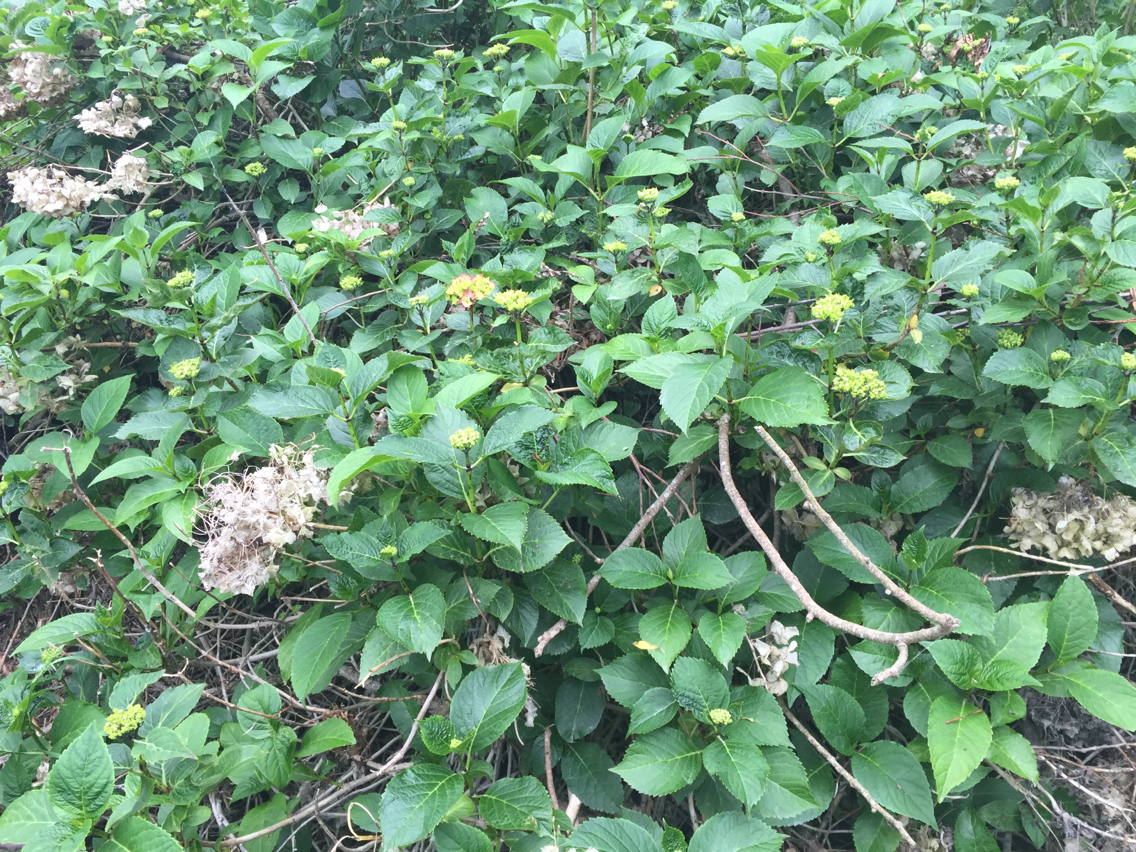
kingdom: Plantae
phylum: Tracheophyta
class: Magnoliopsida
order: Cornales
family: Hydrangeaceae
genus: Hydrangea
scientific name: Hydrangea macrophylla
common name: Hydrangea
